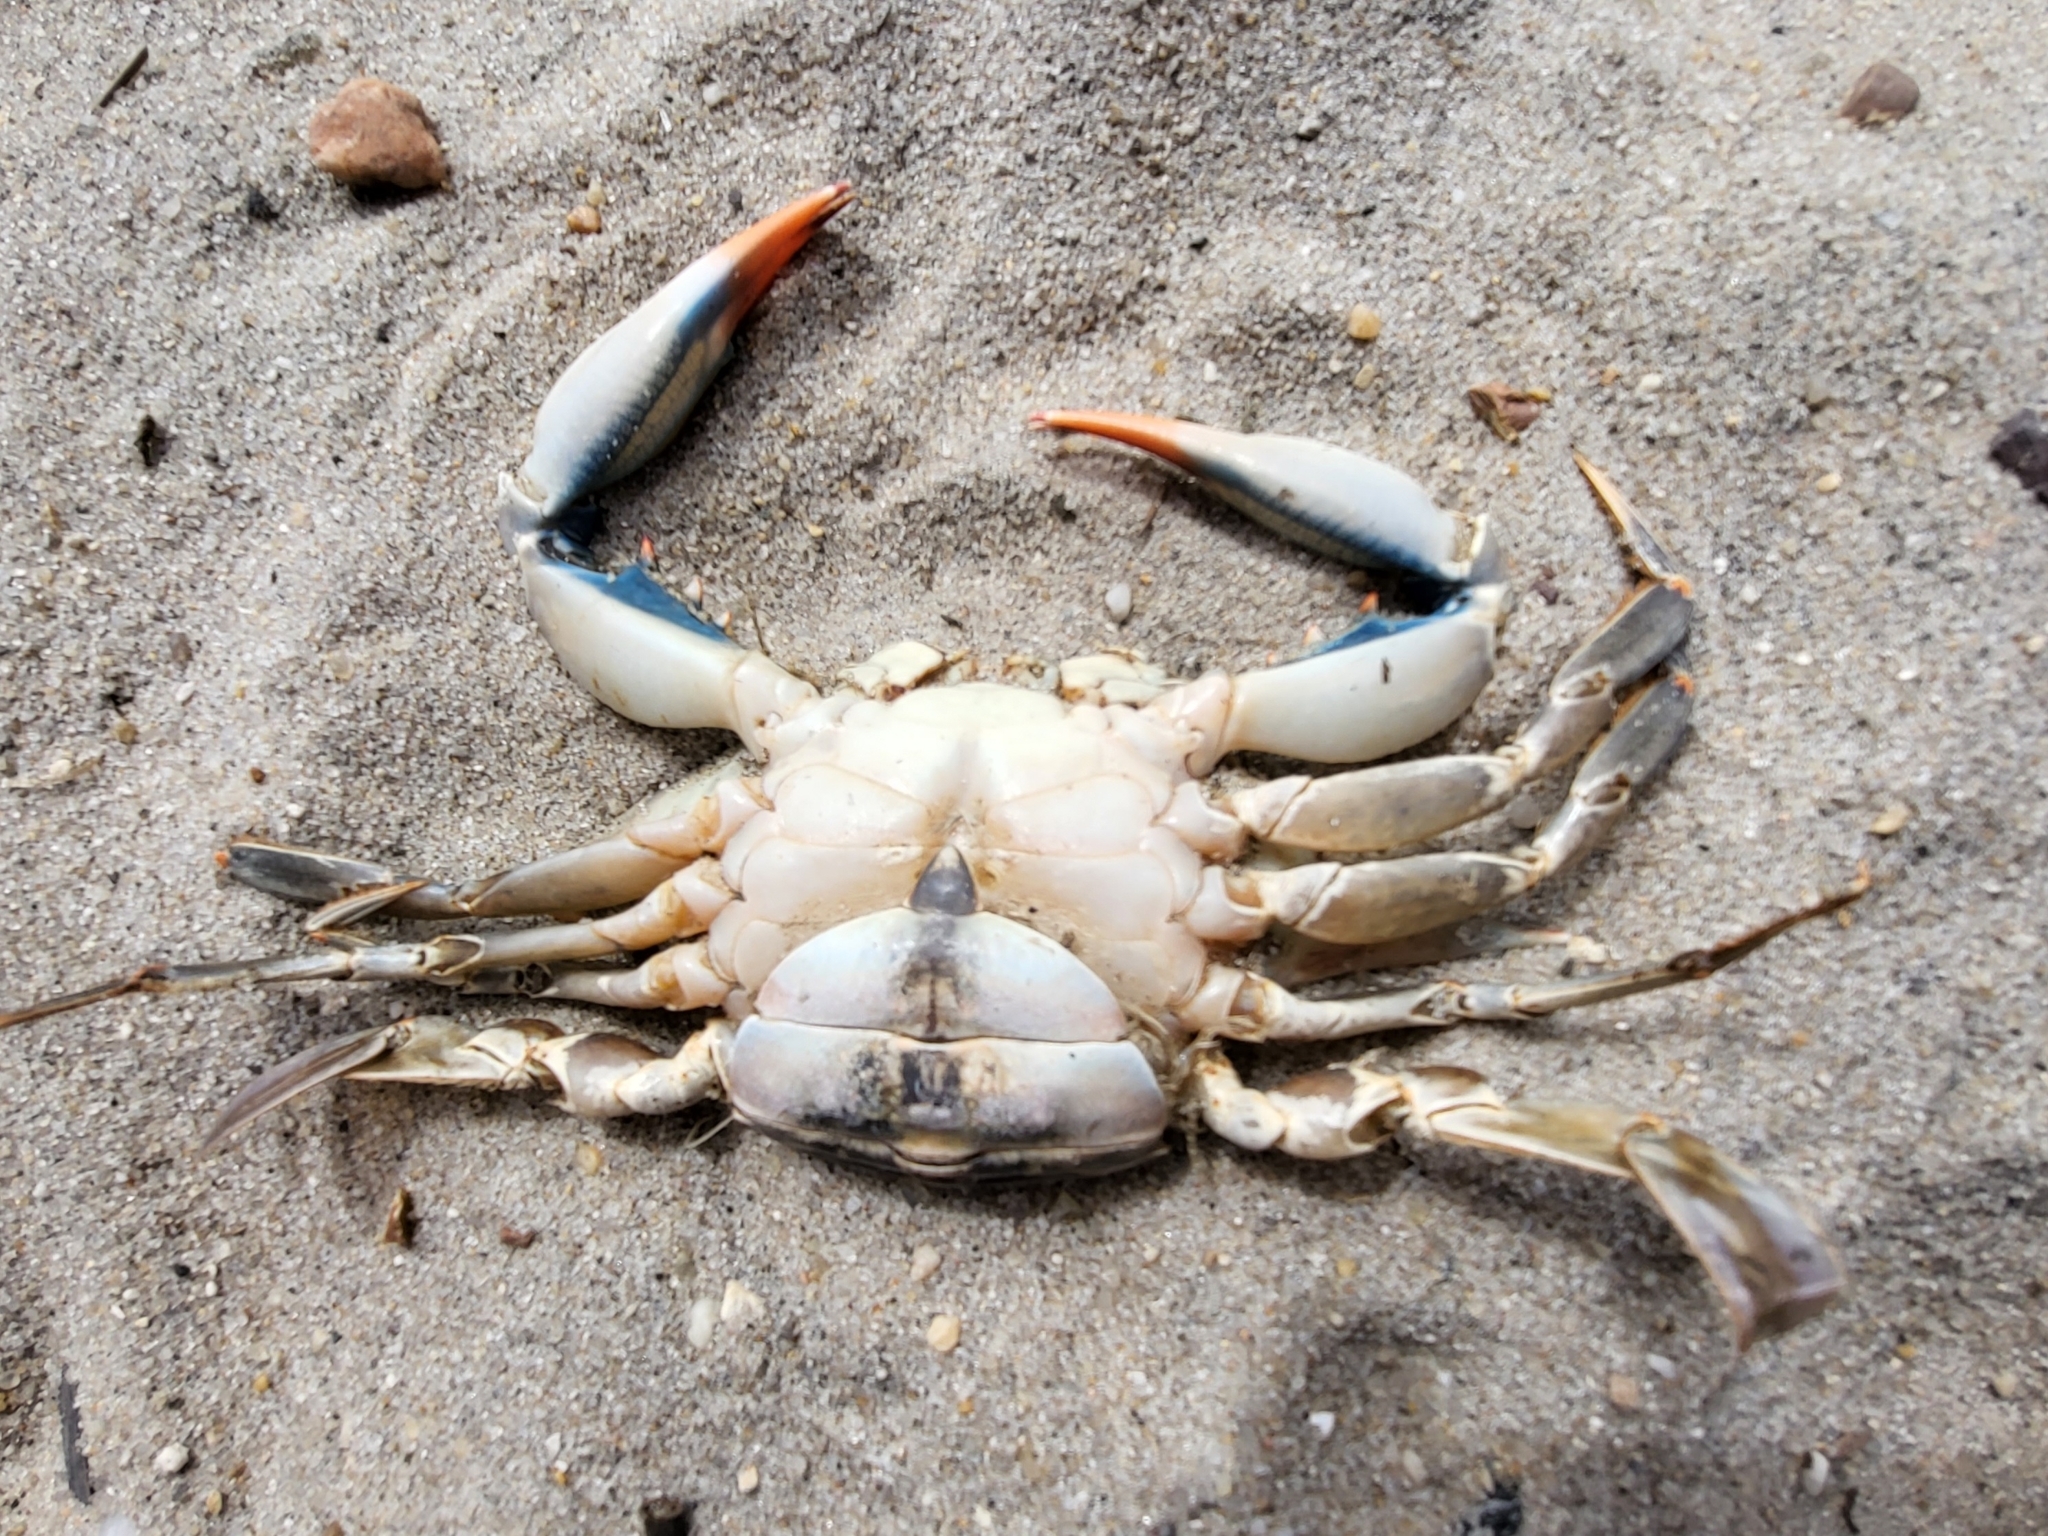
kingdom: Animalia
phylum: Arthropoda
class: Malacostraca
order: Decapoda
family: Portunidae
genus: Callinectes
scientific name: Callinectes sapidus
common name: Blue crab
